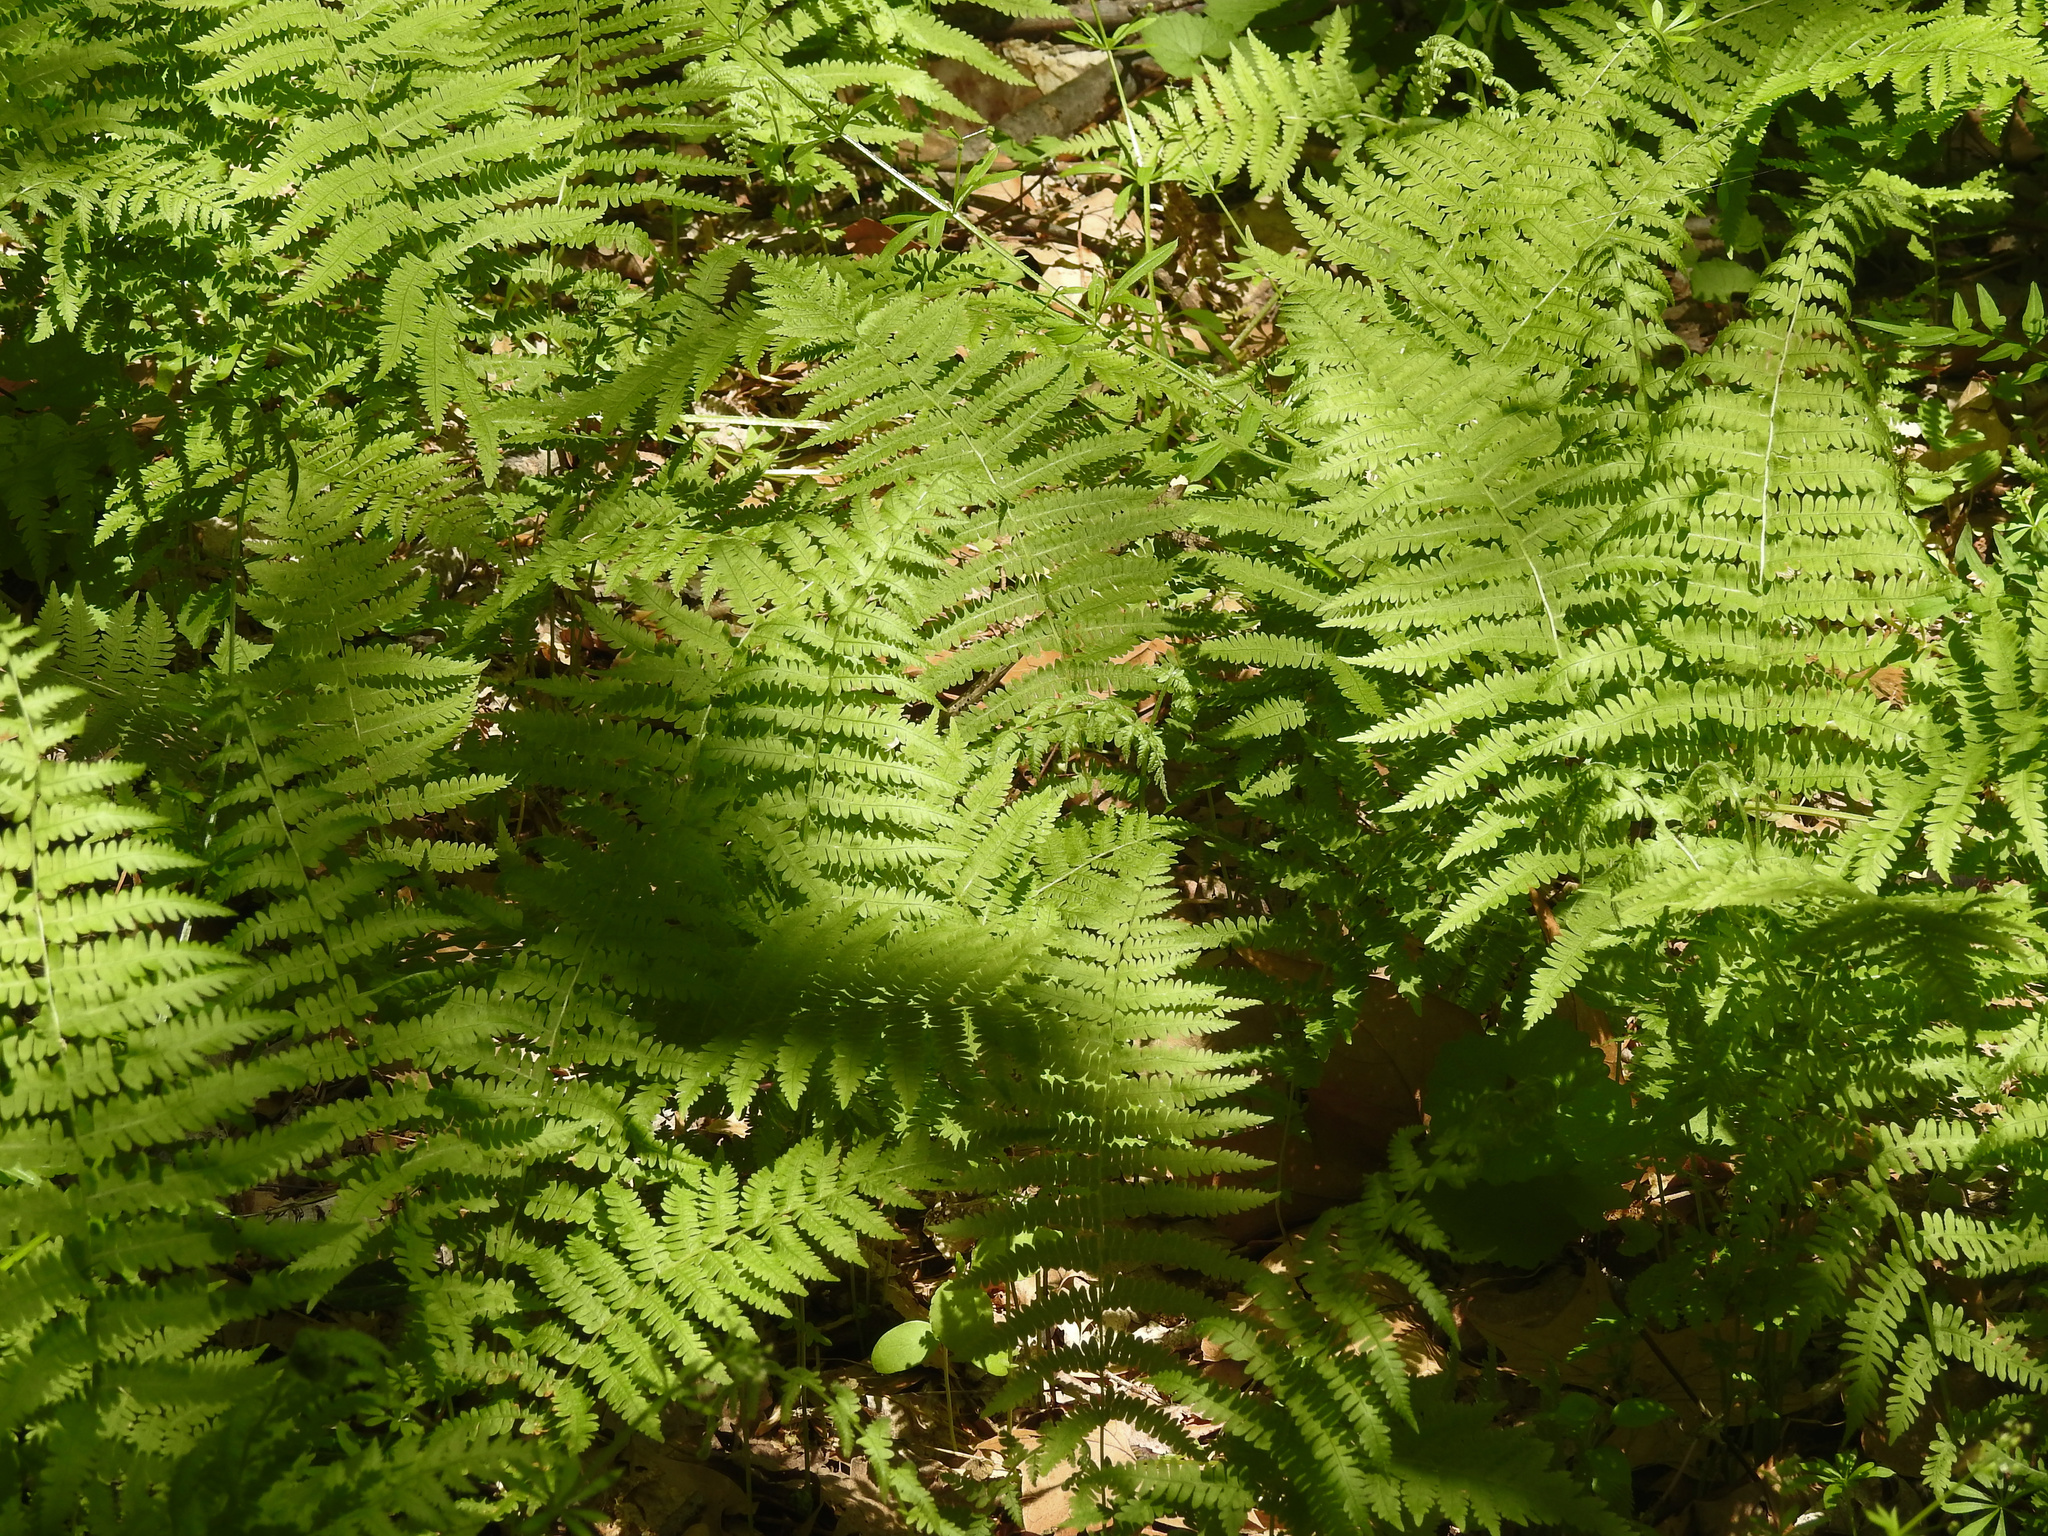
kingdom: Plantae
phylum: Tracheophyta
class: Polypodiopsida
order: Polypodiales
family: Thelypteridaceae
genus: Amauropelta
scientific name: Amauropelta noveboracensis
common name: New york fern
